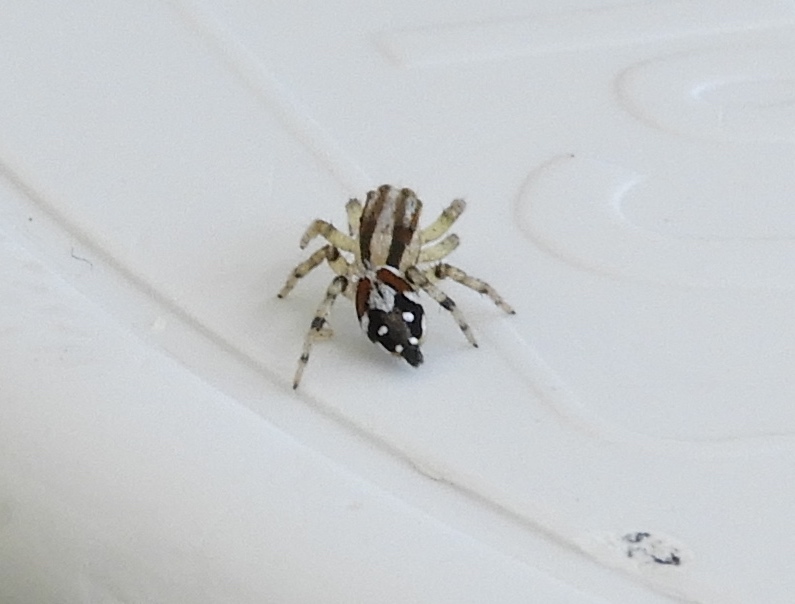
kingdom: Animalia
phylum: Arthropoda
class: Arachnida
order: Araneae
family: Salticidae
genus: Nycerella
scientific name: Nycerella delecta
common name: Jumping spiders
